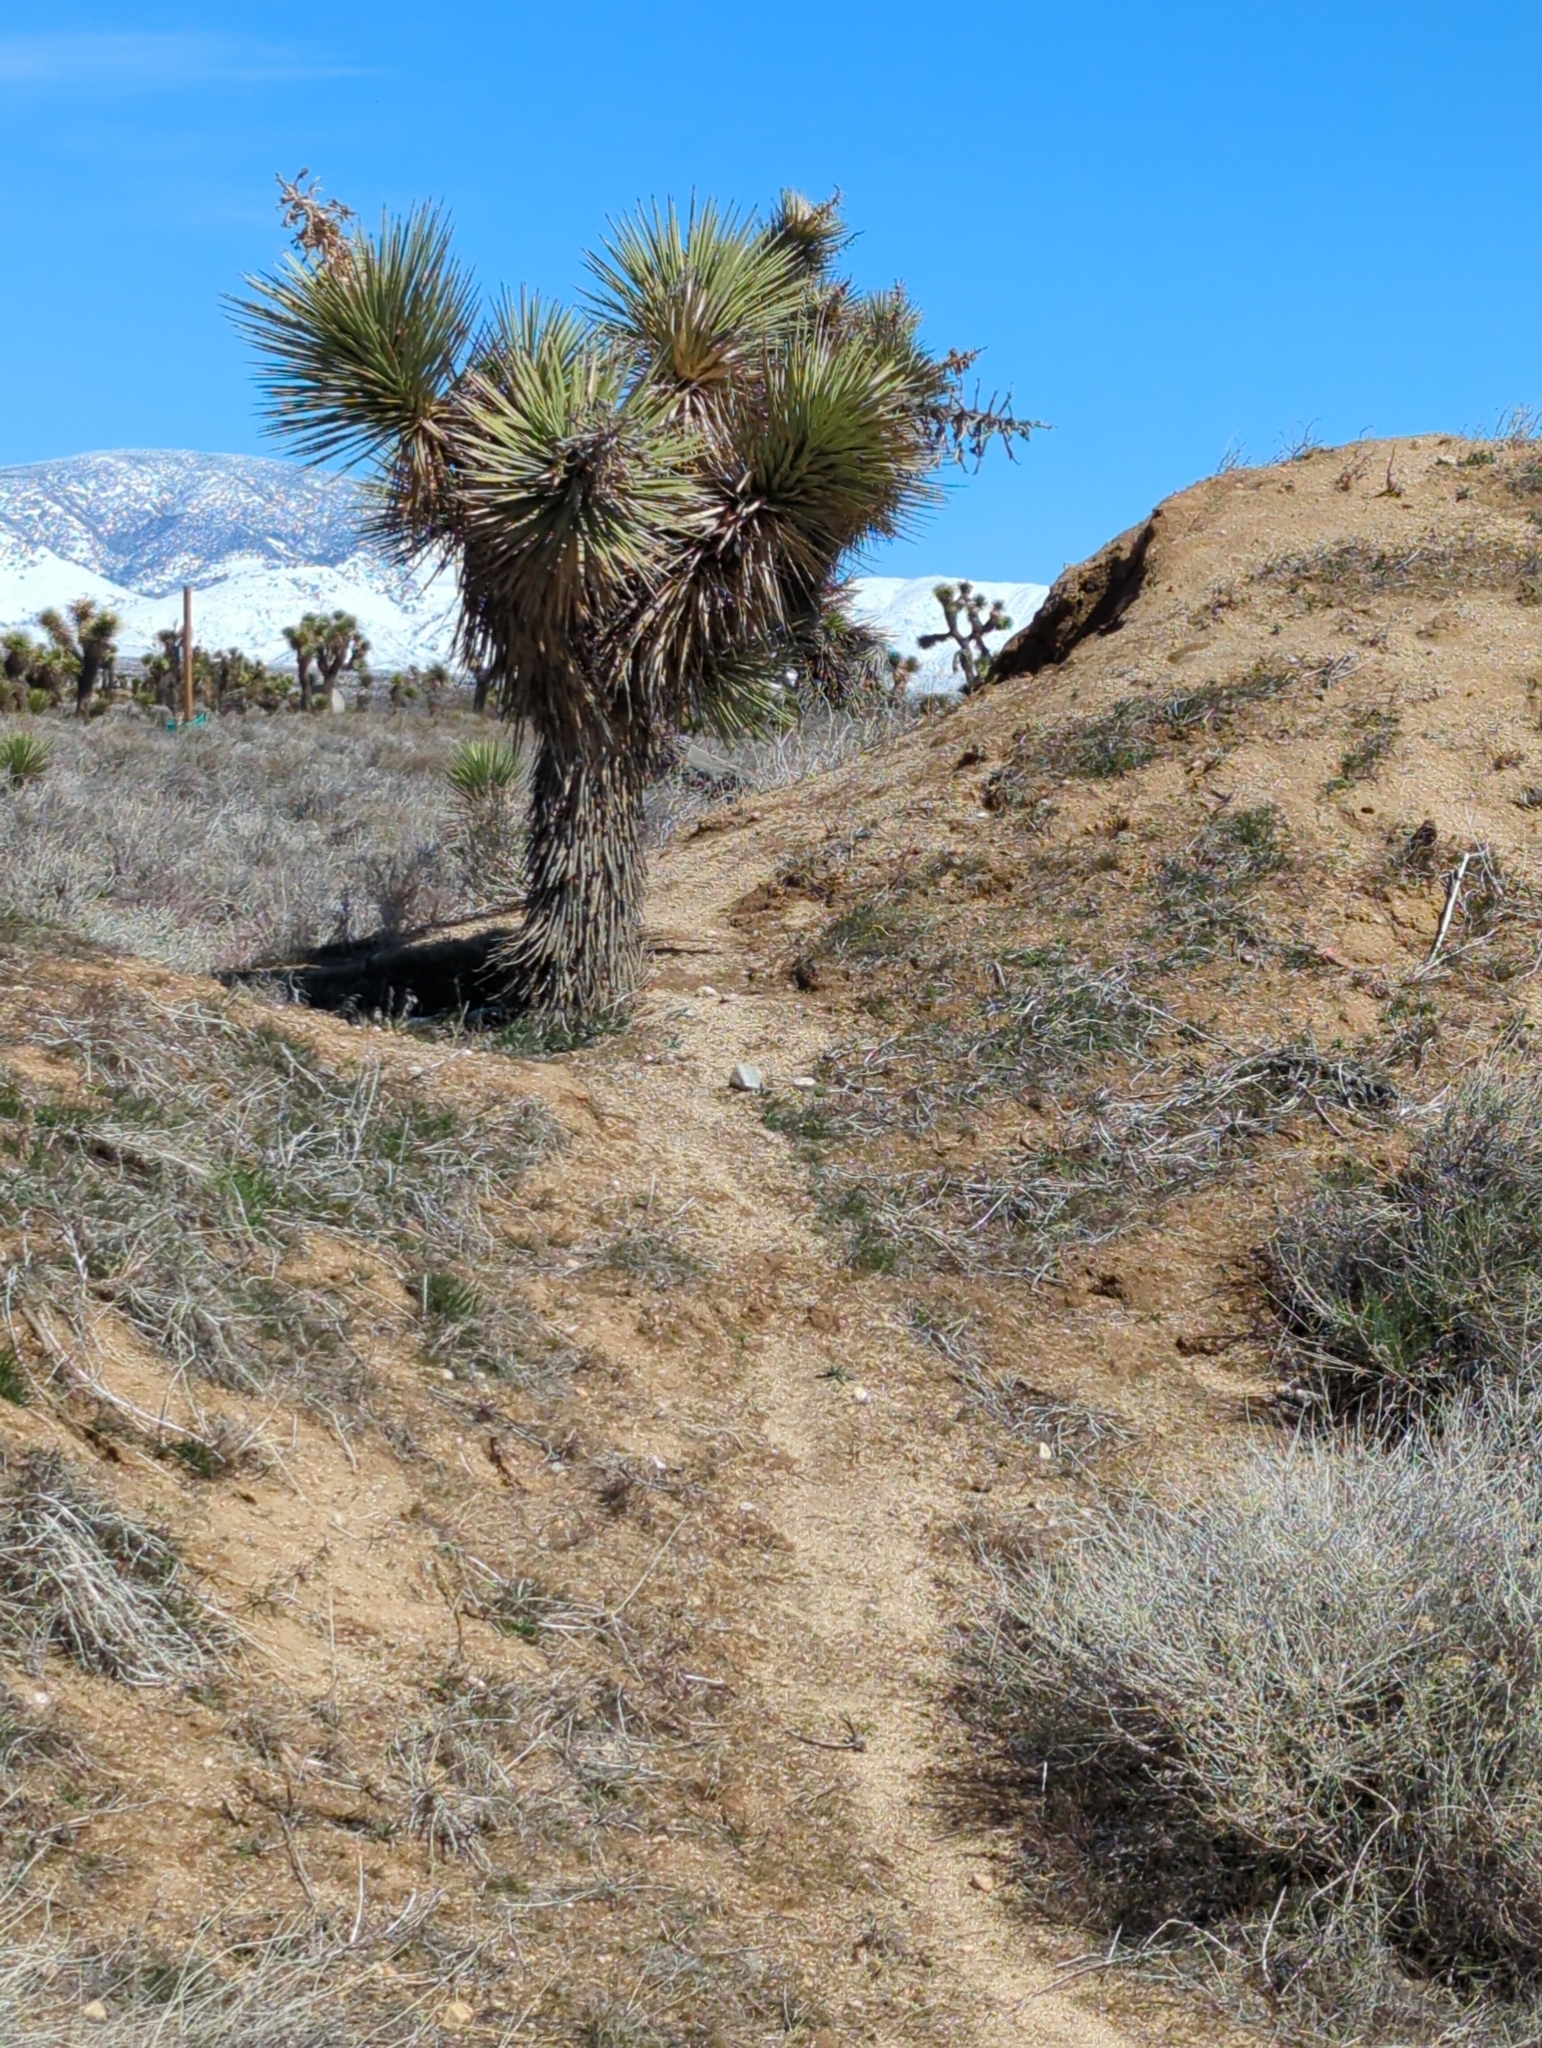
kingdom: Plantae
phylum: Tracheophyta
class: Liliopsida
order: Asparagales
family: Asparagaceae
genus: Yucca
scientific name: Yucca brevifolia
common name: Joshua tree
